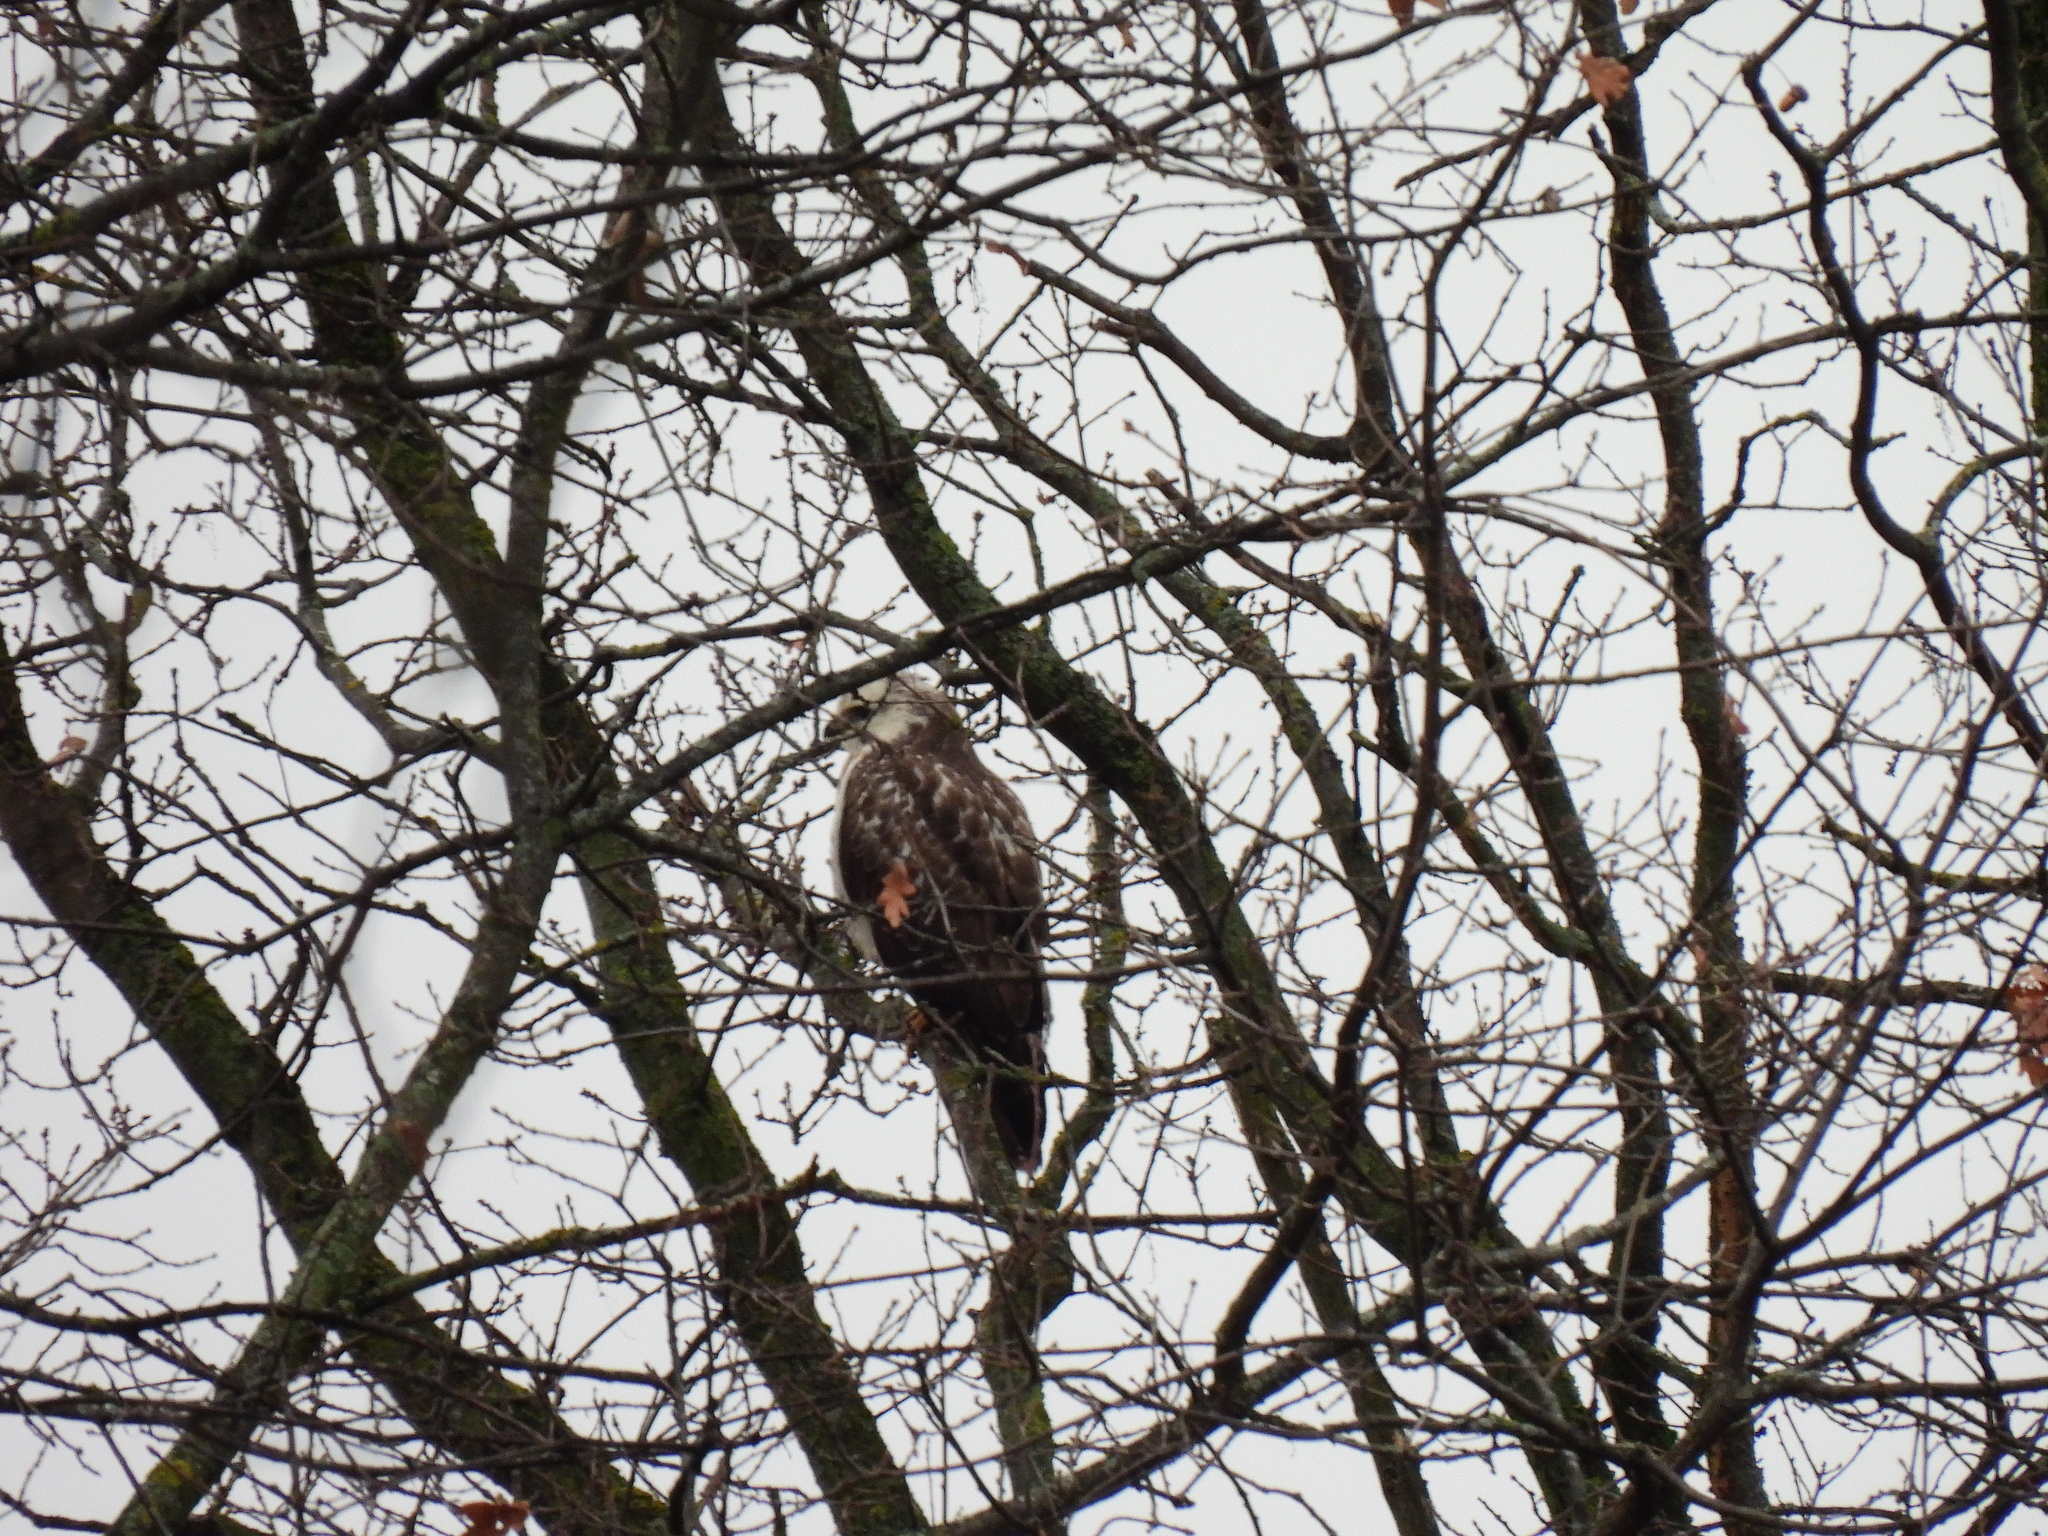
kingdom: Animalia
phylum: Chordata
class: Aves
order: Accipitriformes
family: Accipitridae
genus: Buteo
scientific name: Buteo buteo
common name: Common buzzard
